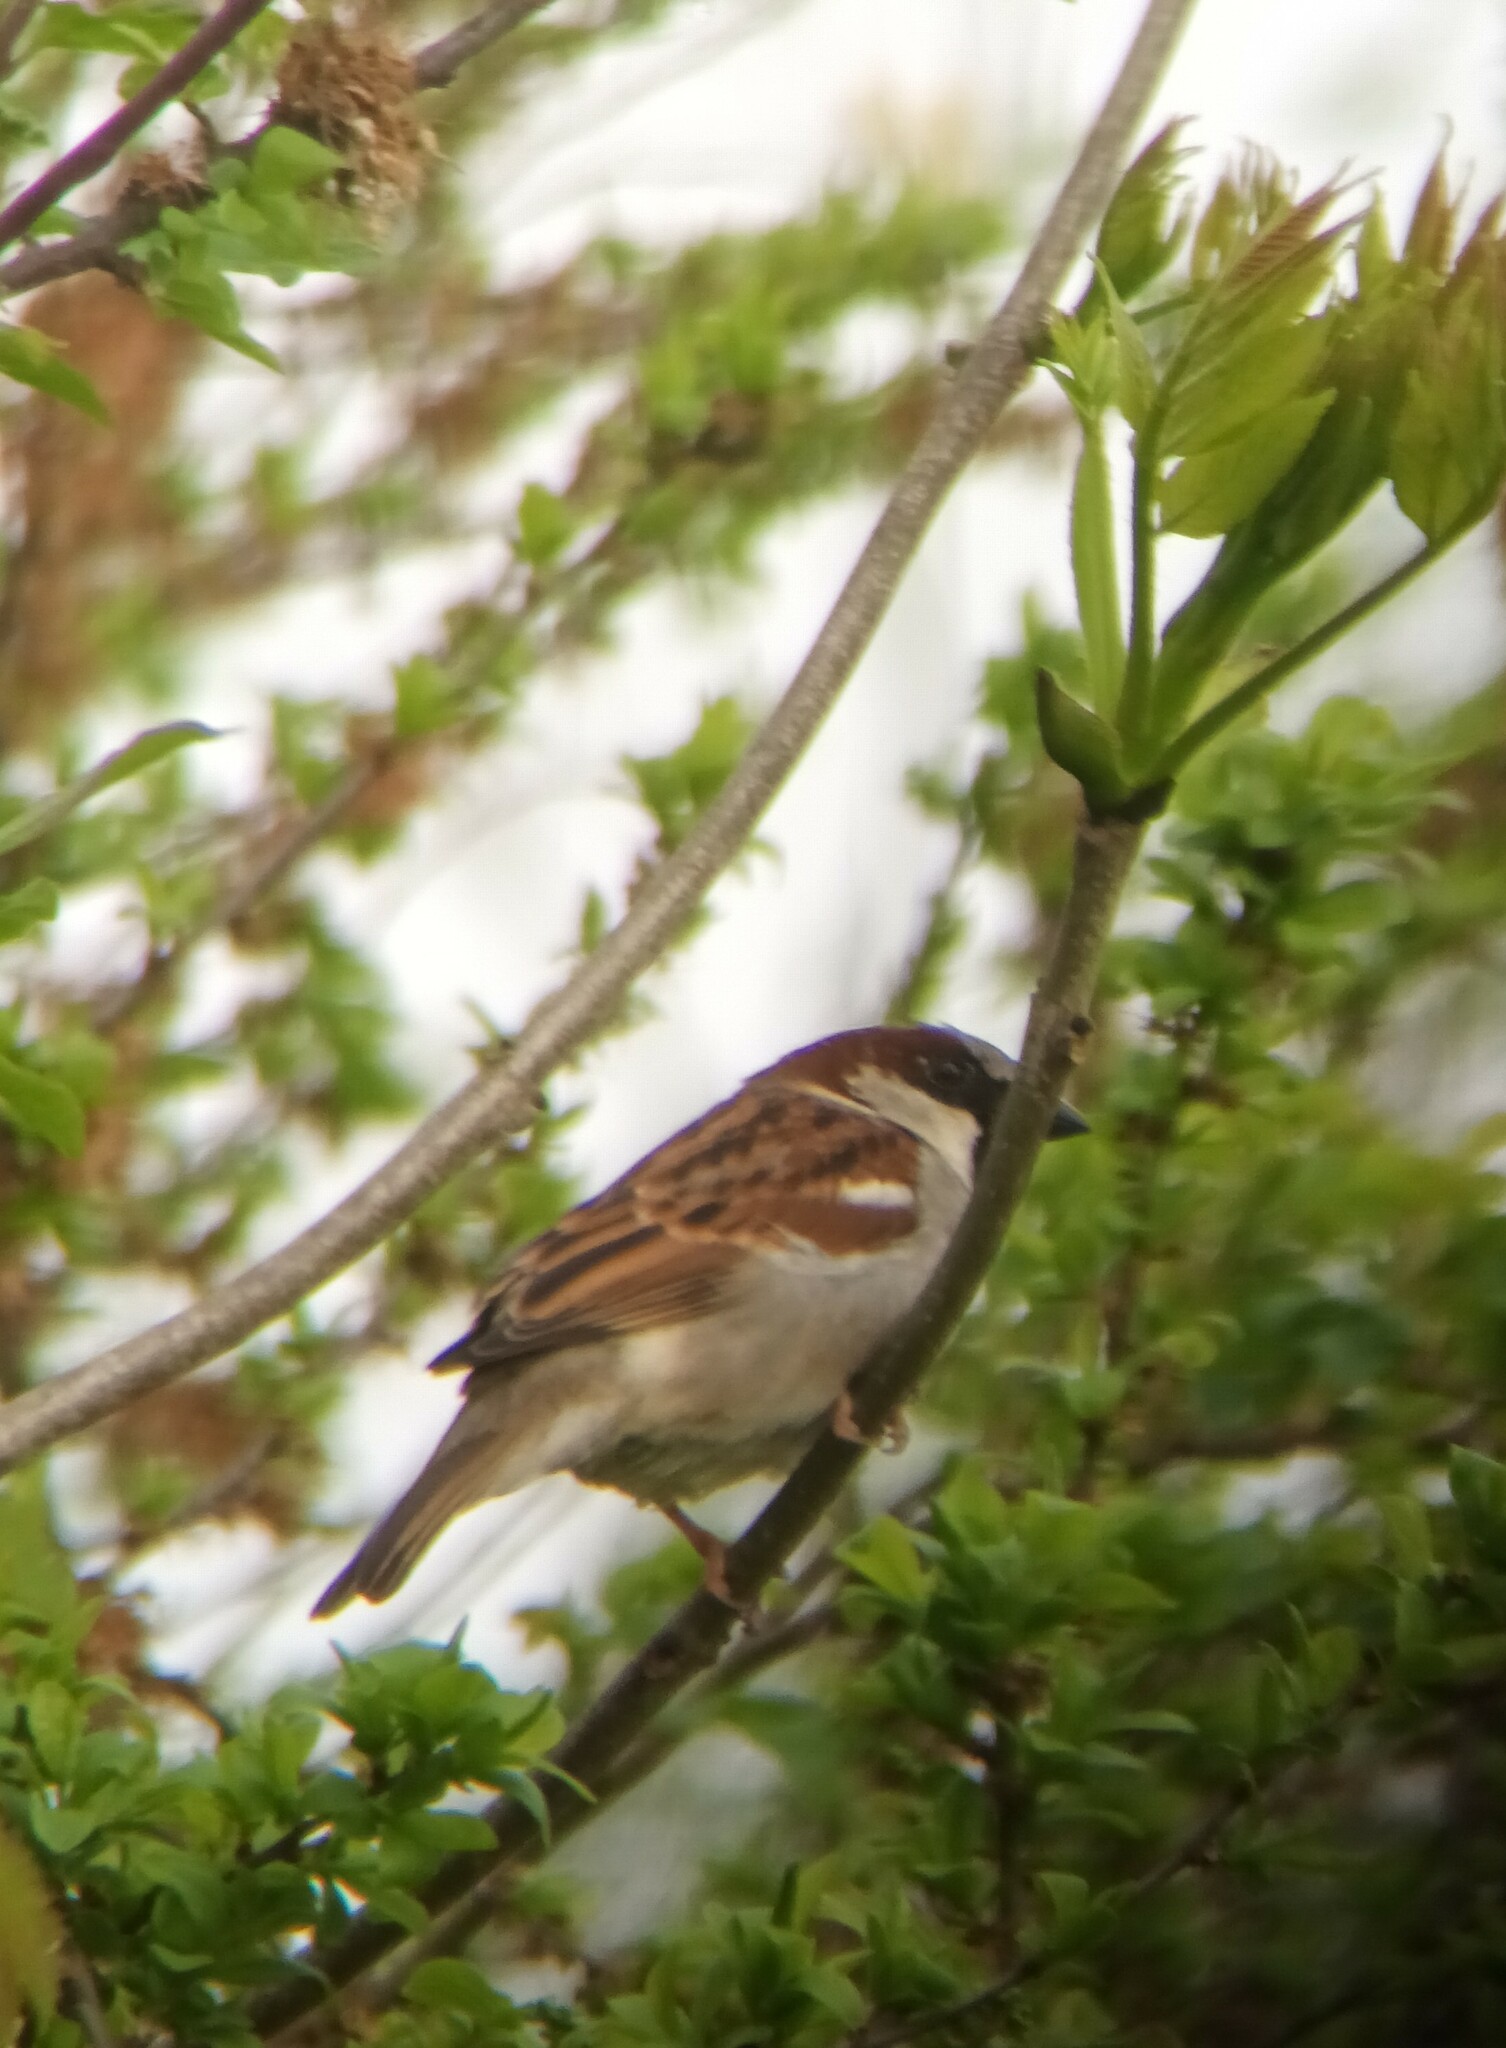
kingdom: Animalia
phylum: Chordata
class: Aves
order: Passeriformes
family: Passeridae
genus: Passer
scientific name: Passer domesticus
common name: House sparrow
